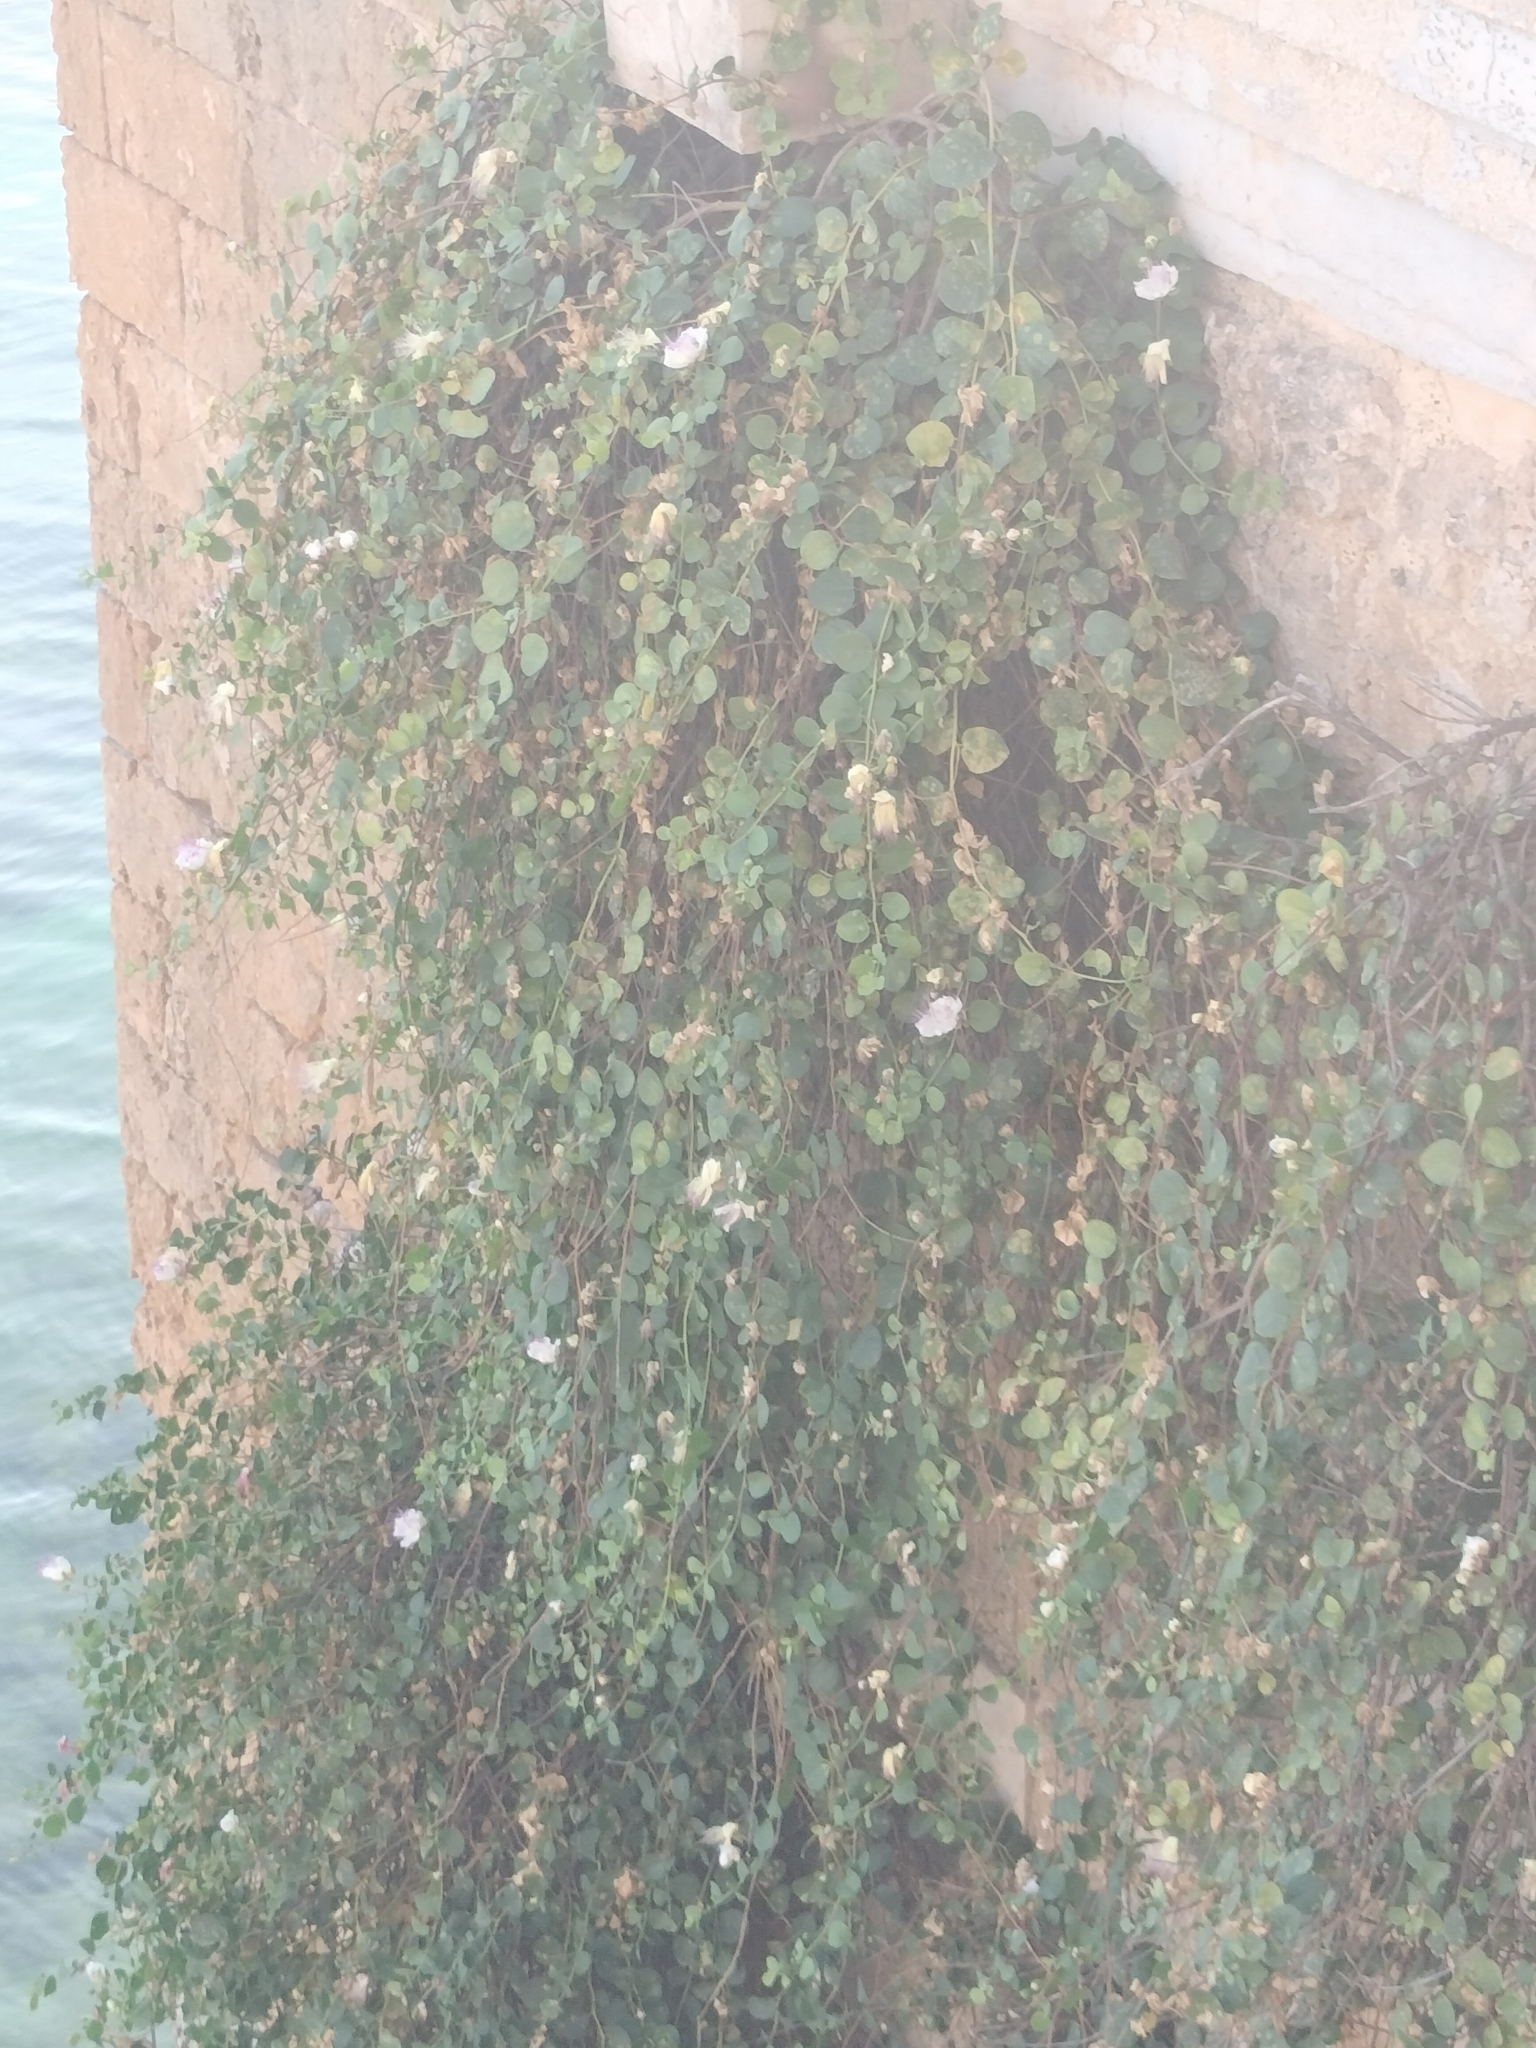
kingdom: Plantae
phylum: Tracheophyta
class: Magnoliopsida
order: Brassicales
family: Capparaceae
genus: Capparis
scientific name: Capparis orientalis
